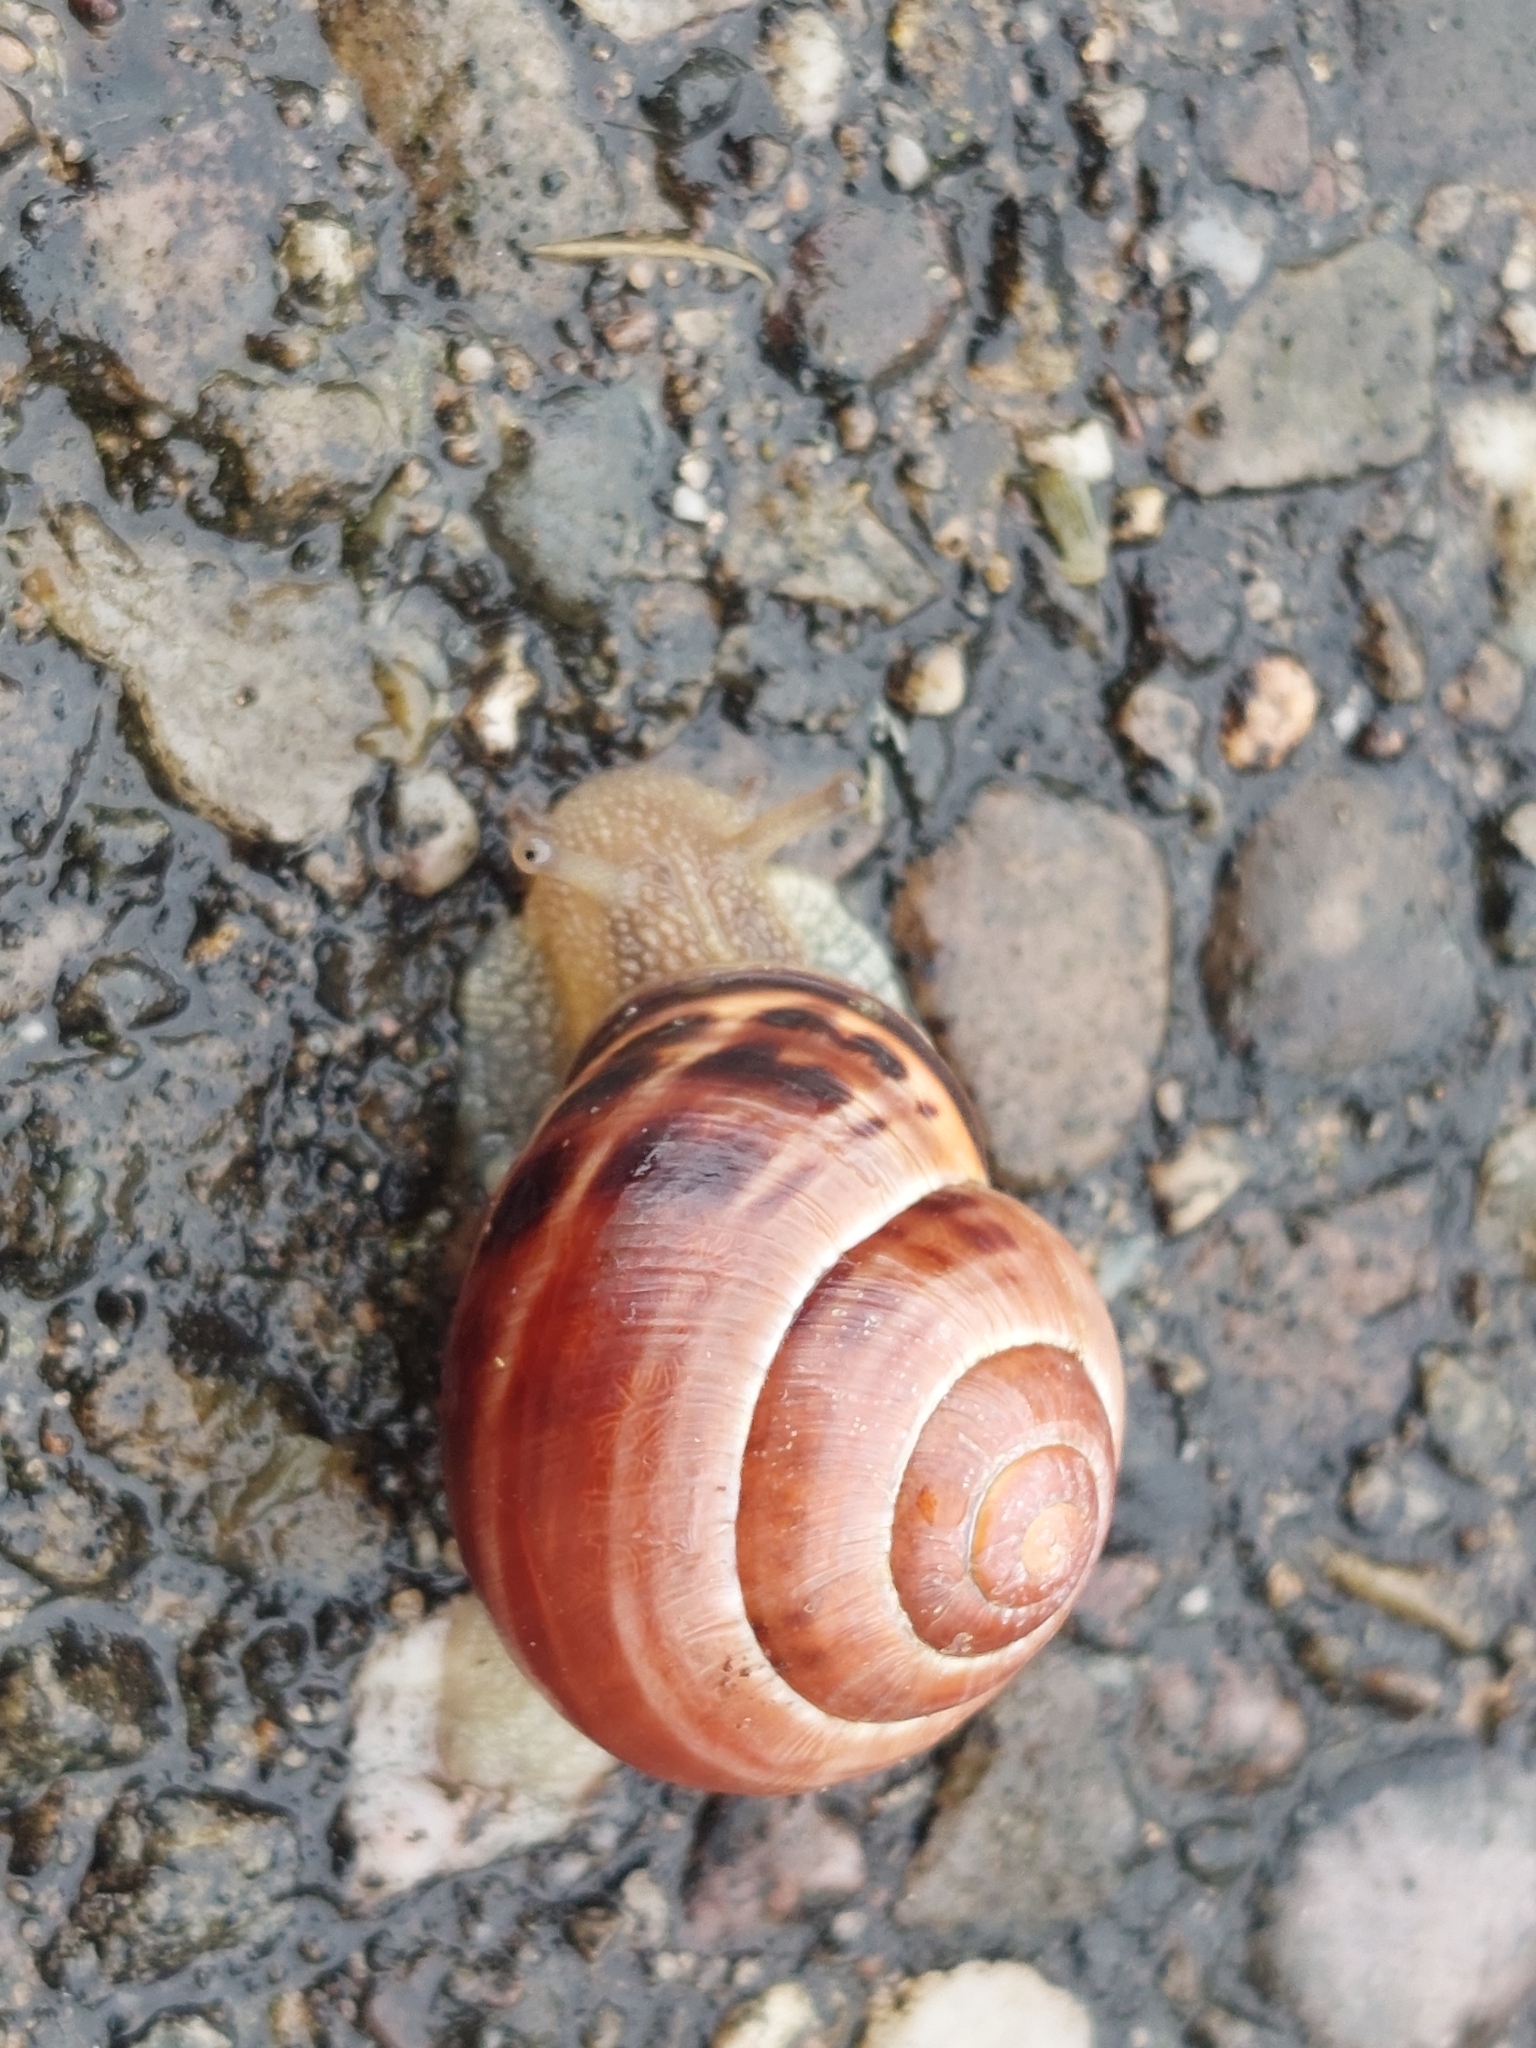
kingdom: Animalia
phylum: Mollusca
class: Gastropoda
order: Stylommatophora
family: Helicidae
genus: Cepaea
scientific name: Cepaea nemoralis
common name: Grovesnail
